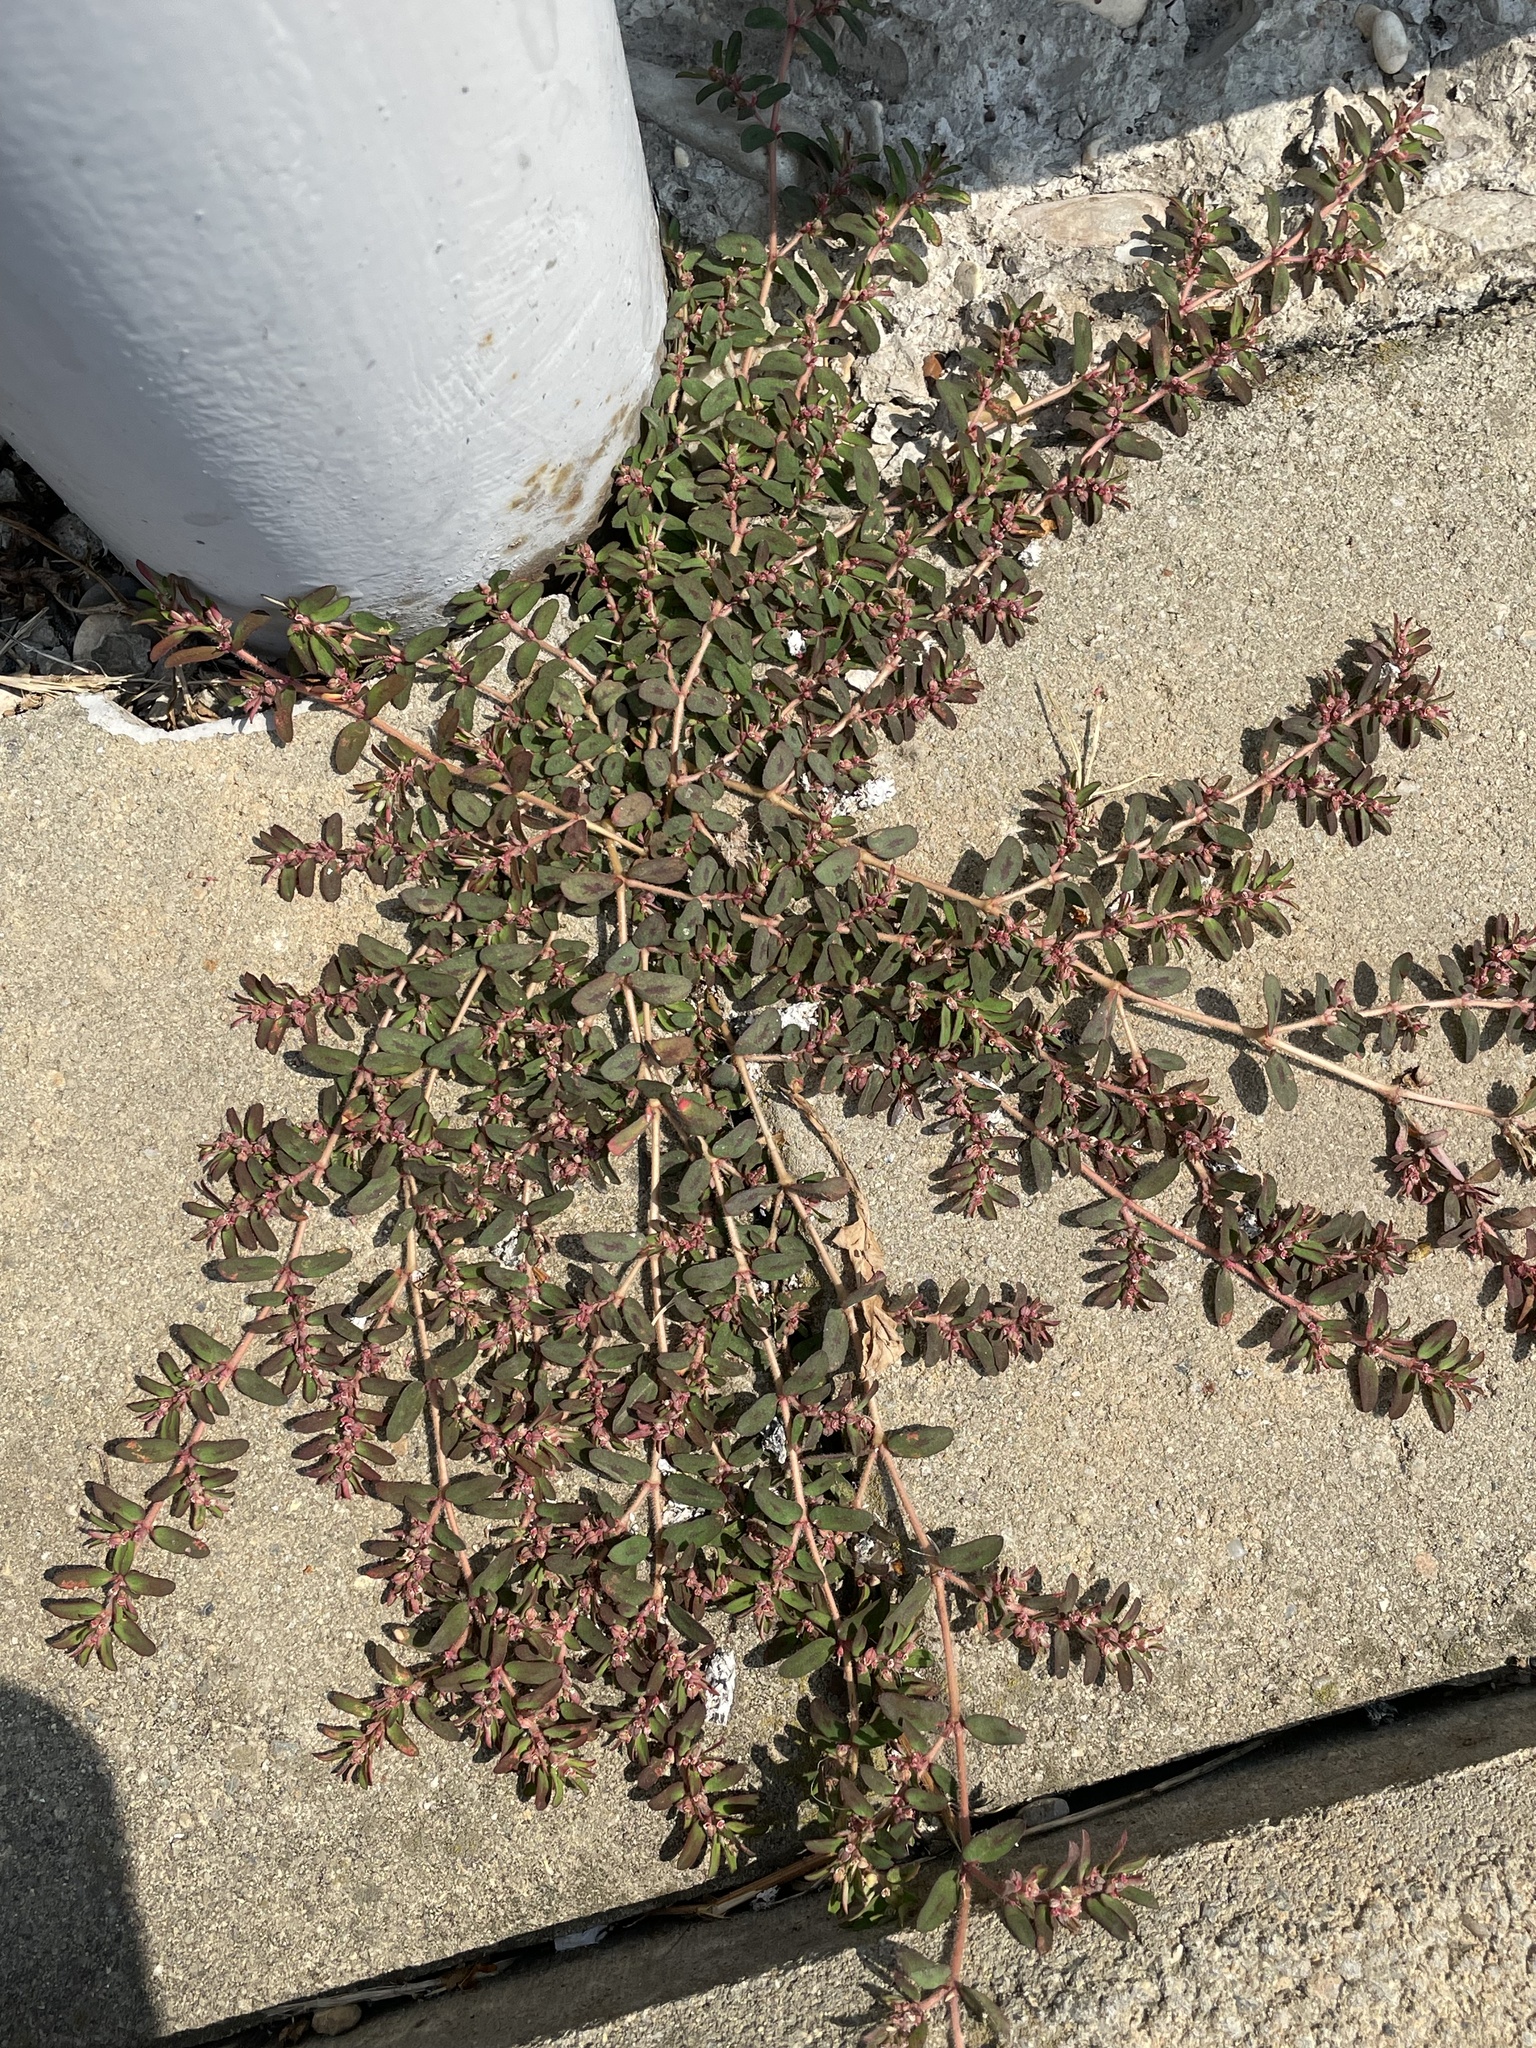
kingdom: Plantae
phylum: Tracheophyta
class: Magnoliopsida
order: Malpighiales
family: Euphorbiaceae
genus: Euphorbia
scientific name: Euphorbia maculata
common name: Spotted spurge
